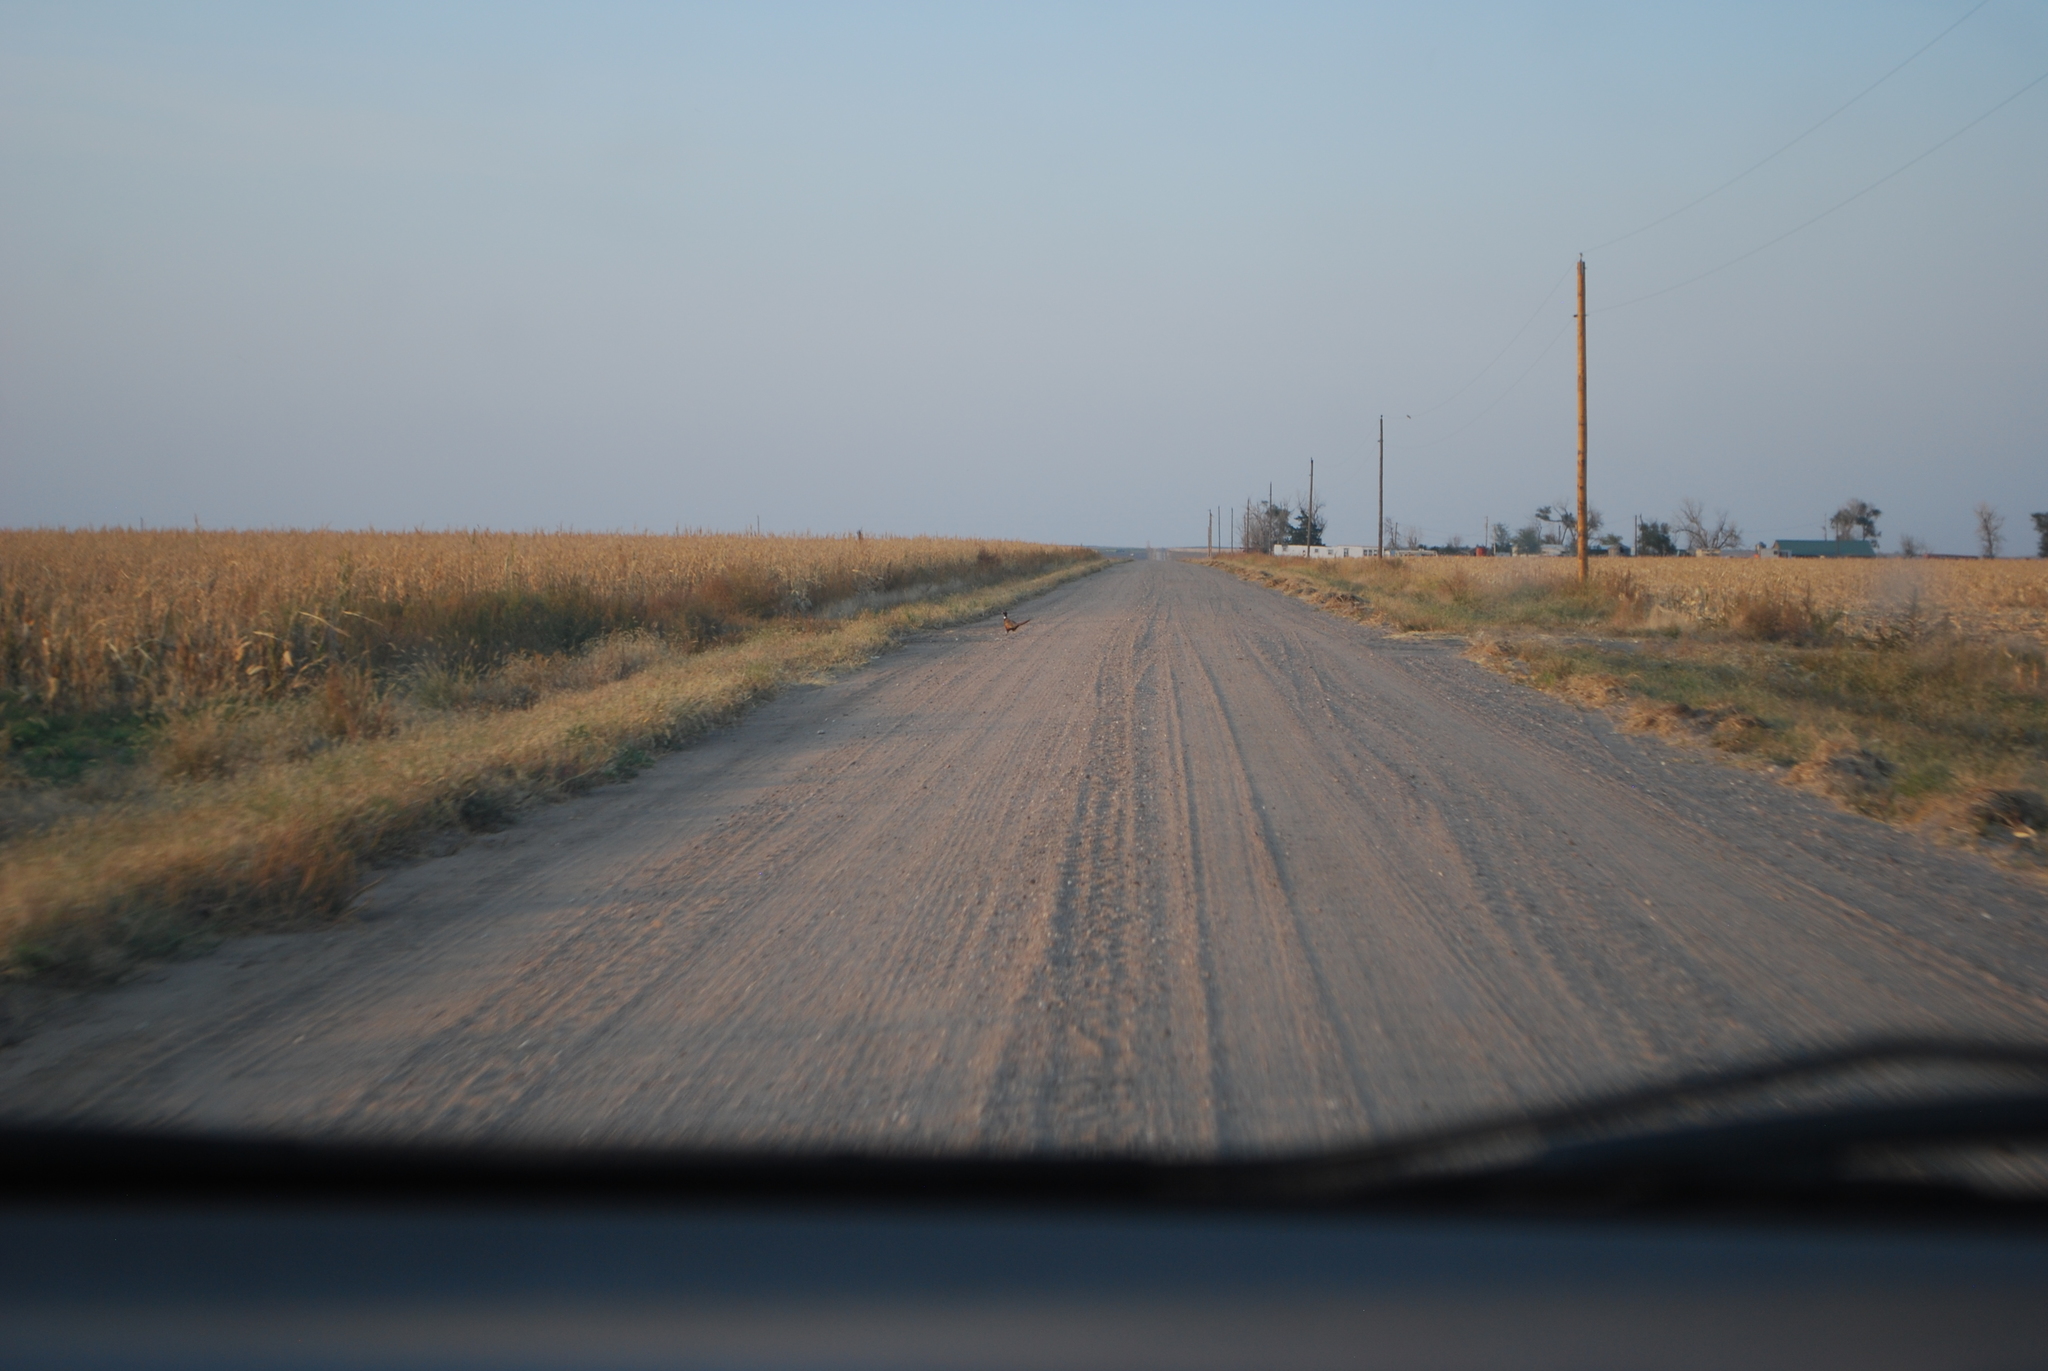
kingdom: Animalia
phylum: Chordata
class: Aves
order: Galliformes
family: Phasianidae
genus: Phasianus
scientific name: Phasianus colchicus
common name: Common pheasant
